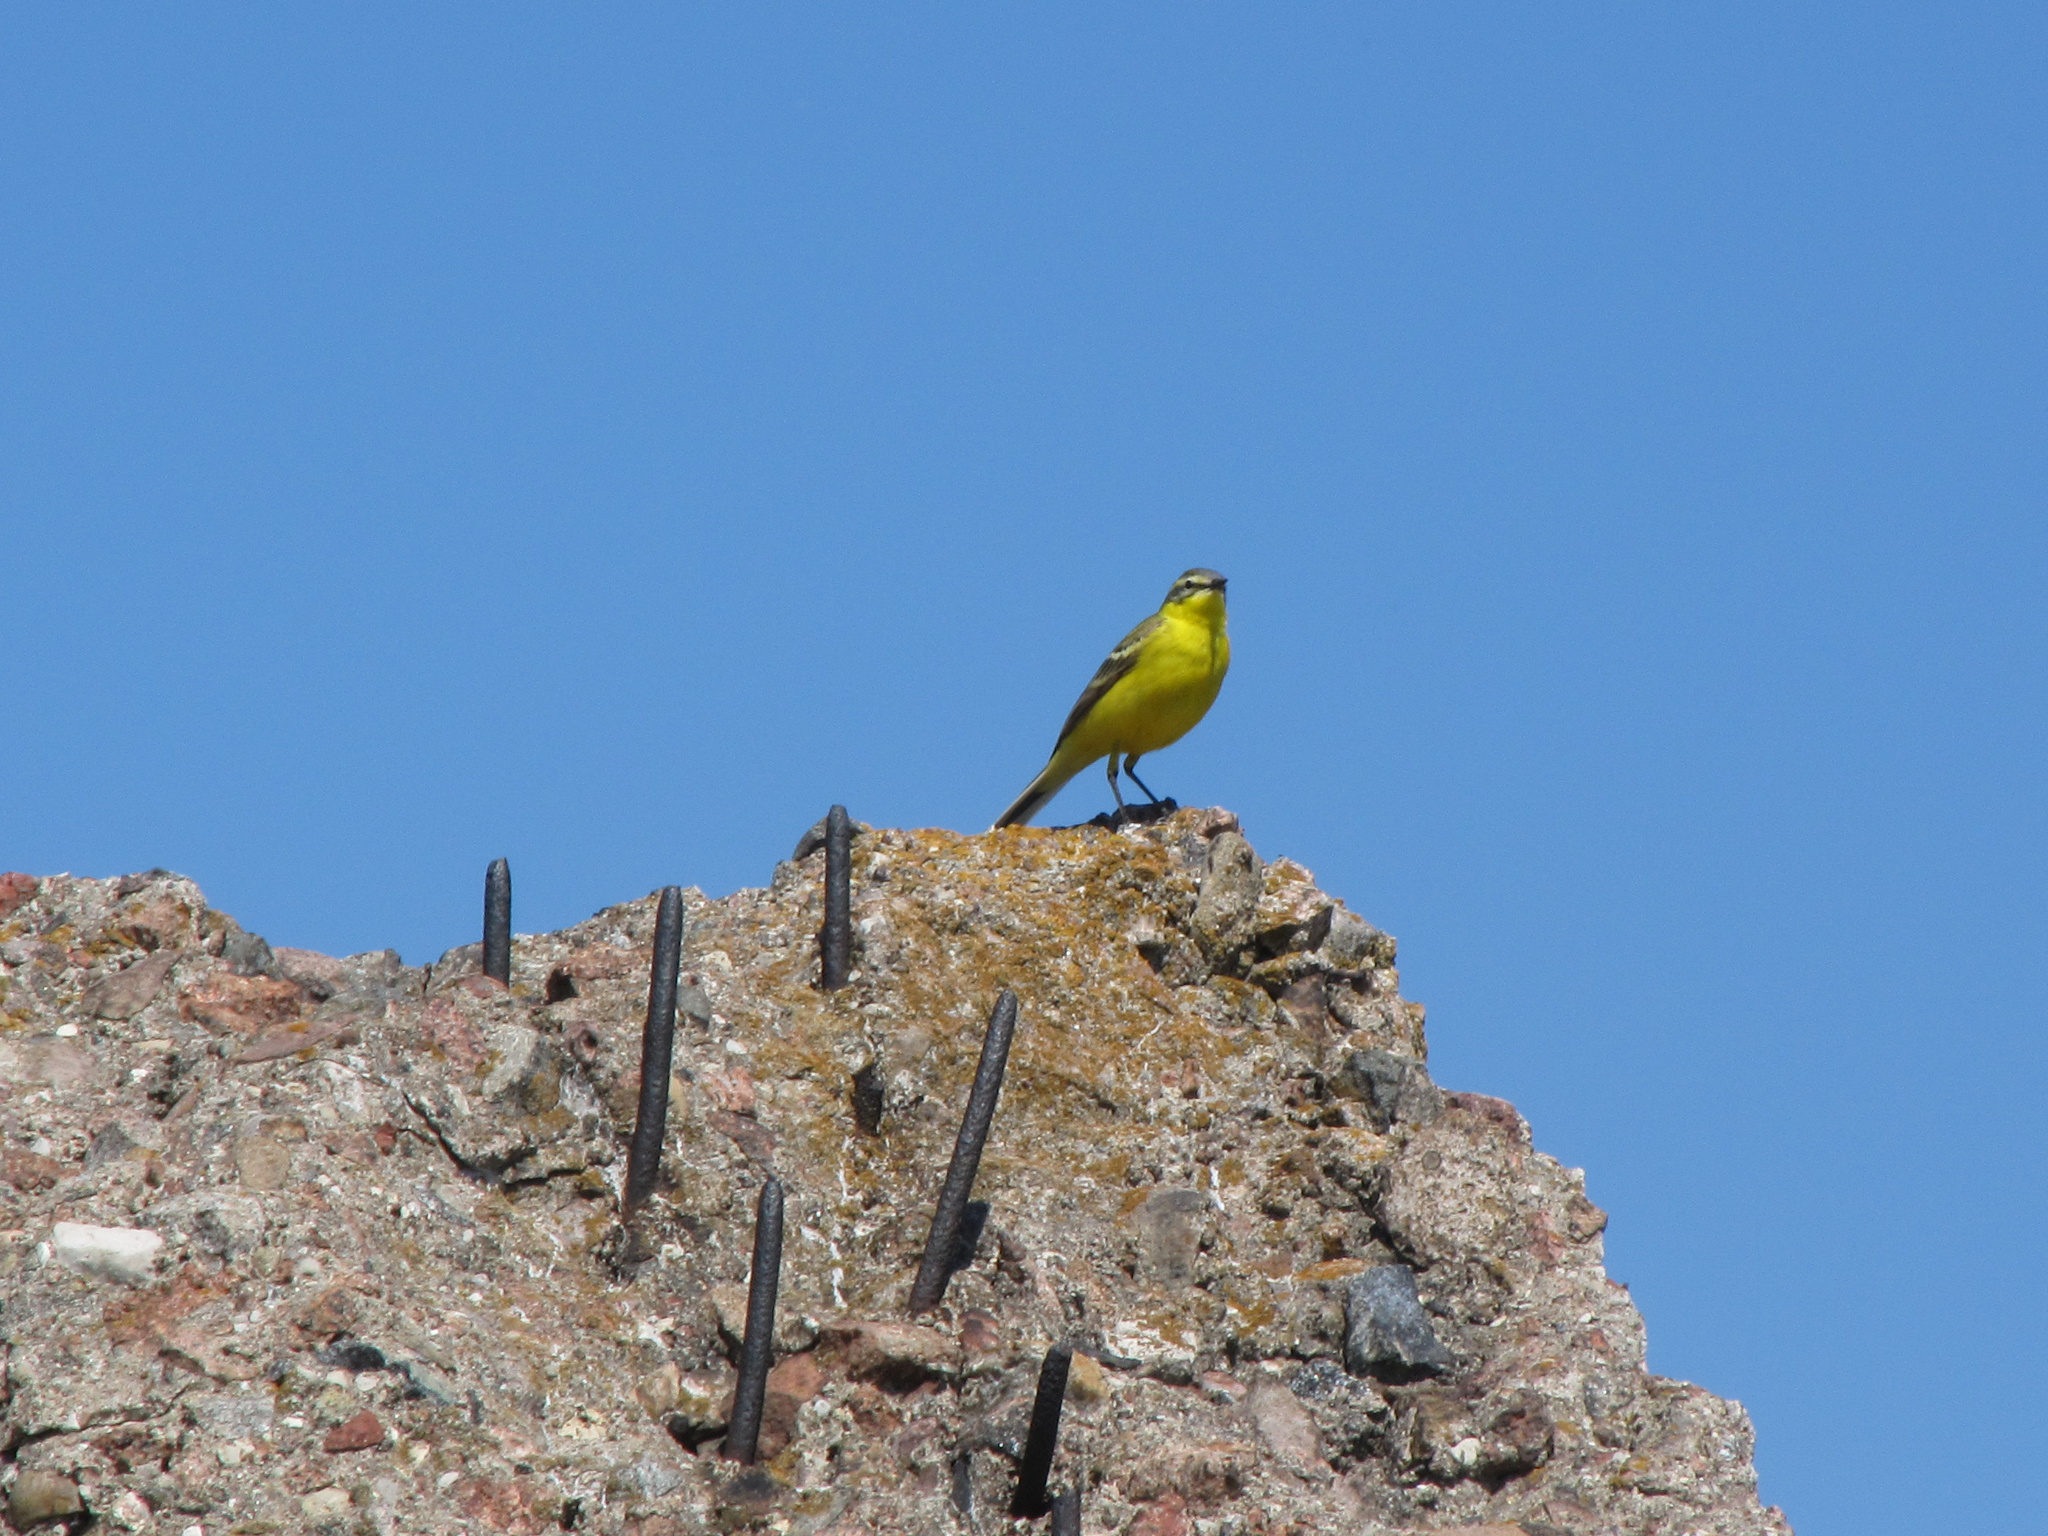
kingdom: Animalia
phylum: Chordata
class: Aves
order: Passeriformes
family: Motacillidae
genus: Motacilla
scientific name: Motacilla flava
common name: Western yellow wagtail
